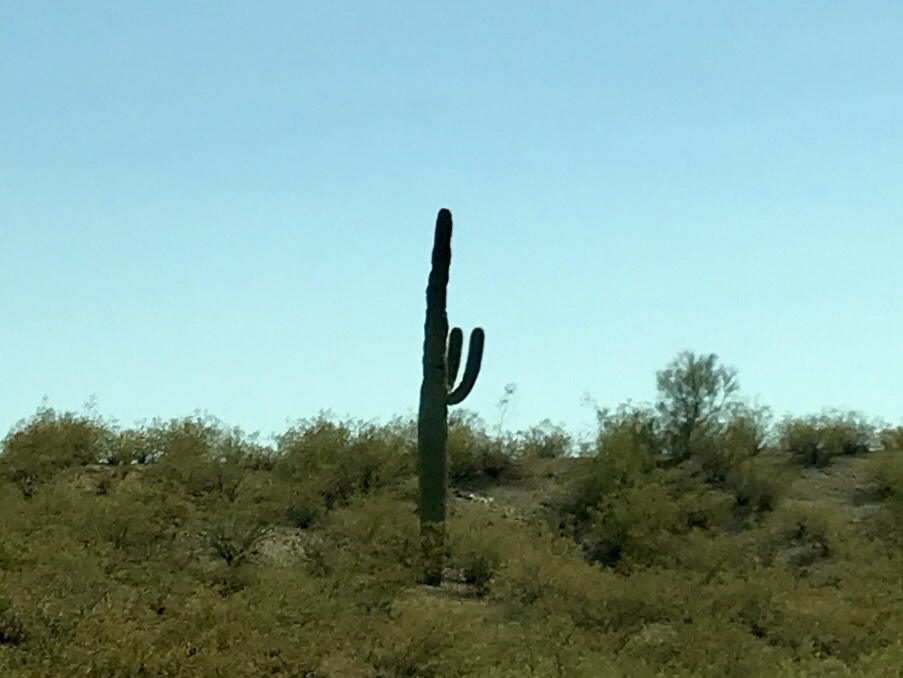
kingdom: Plantae
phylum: Tracheophyta
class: Magnoliopsida
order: Caryophyllales
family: Cactaceae
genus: Carnegiea
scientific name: Carnegiea gigantea
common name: Saguaro
